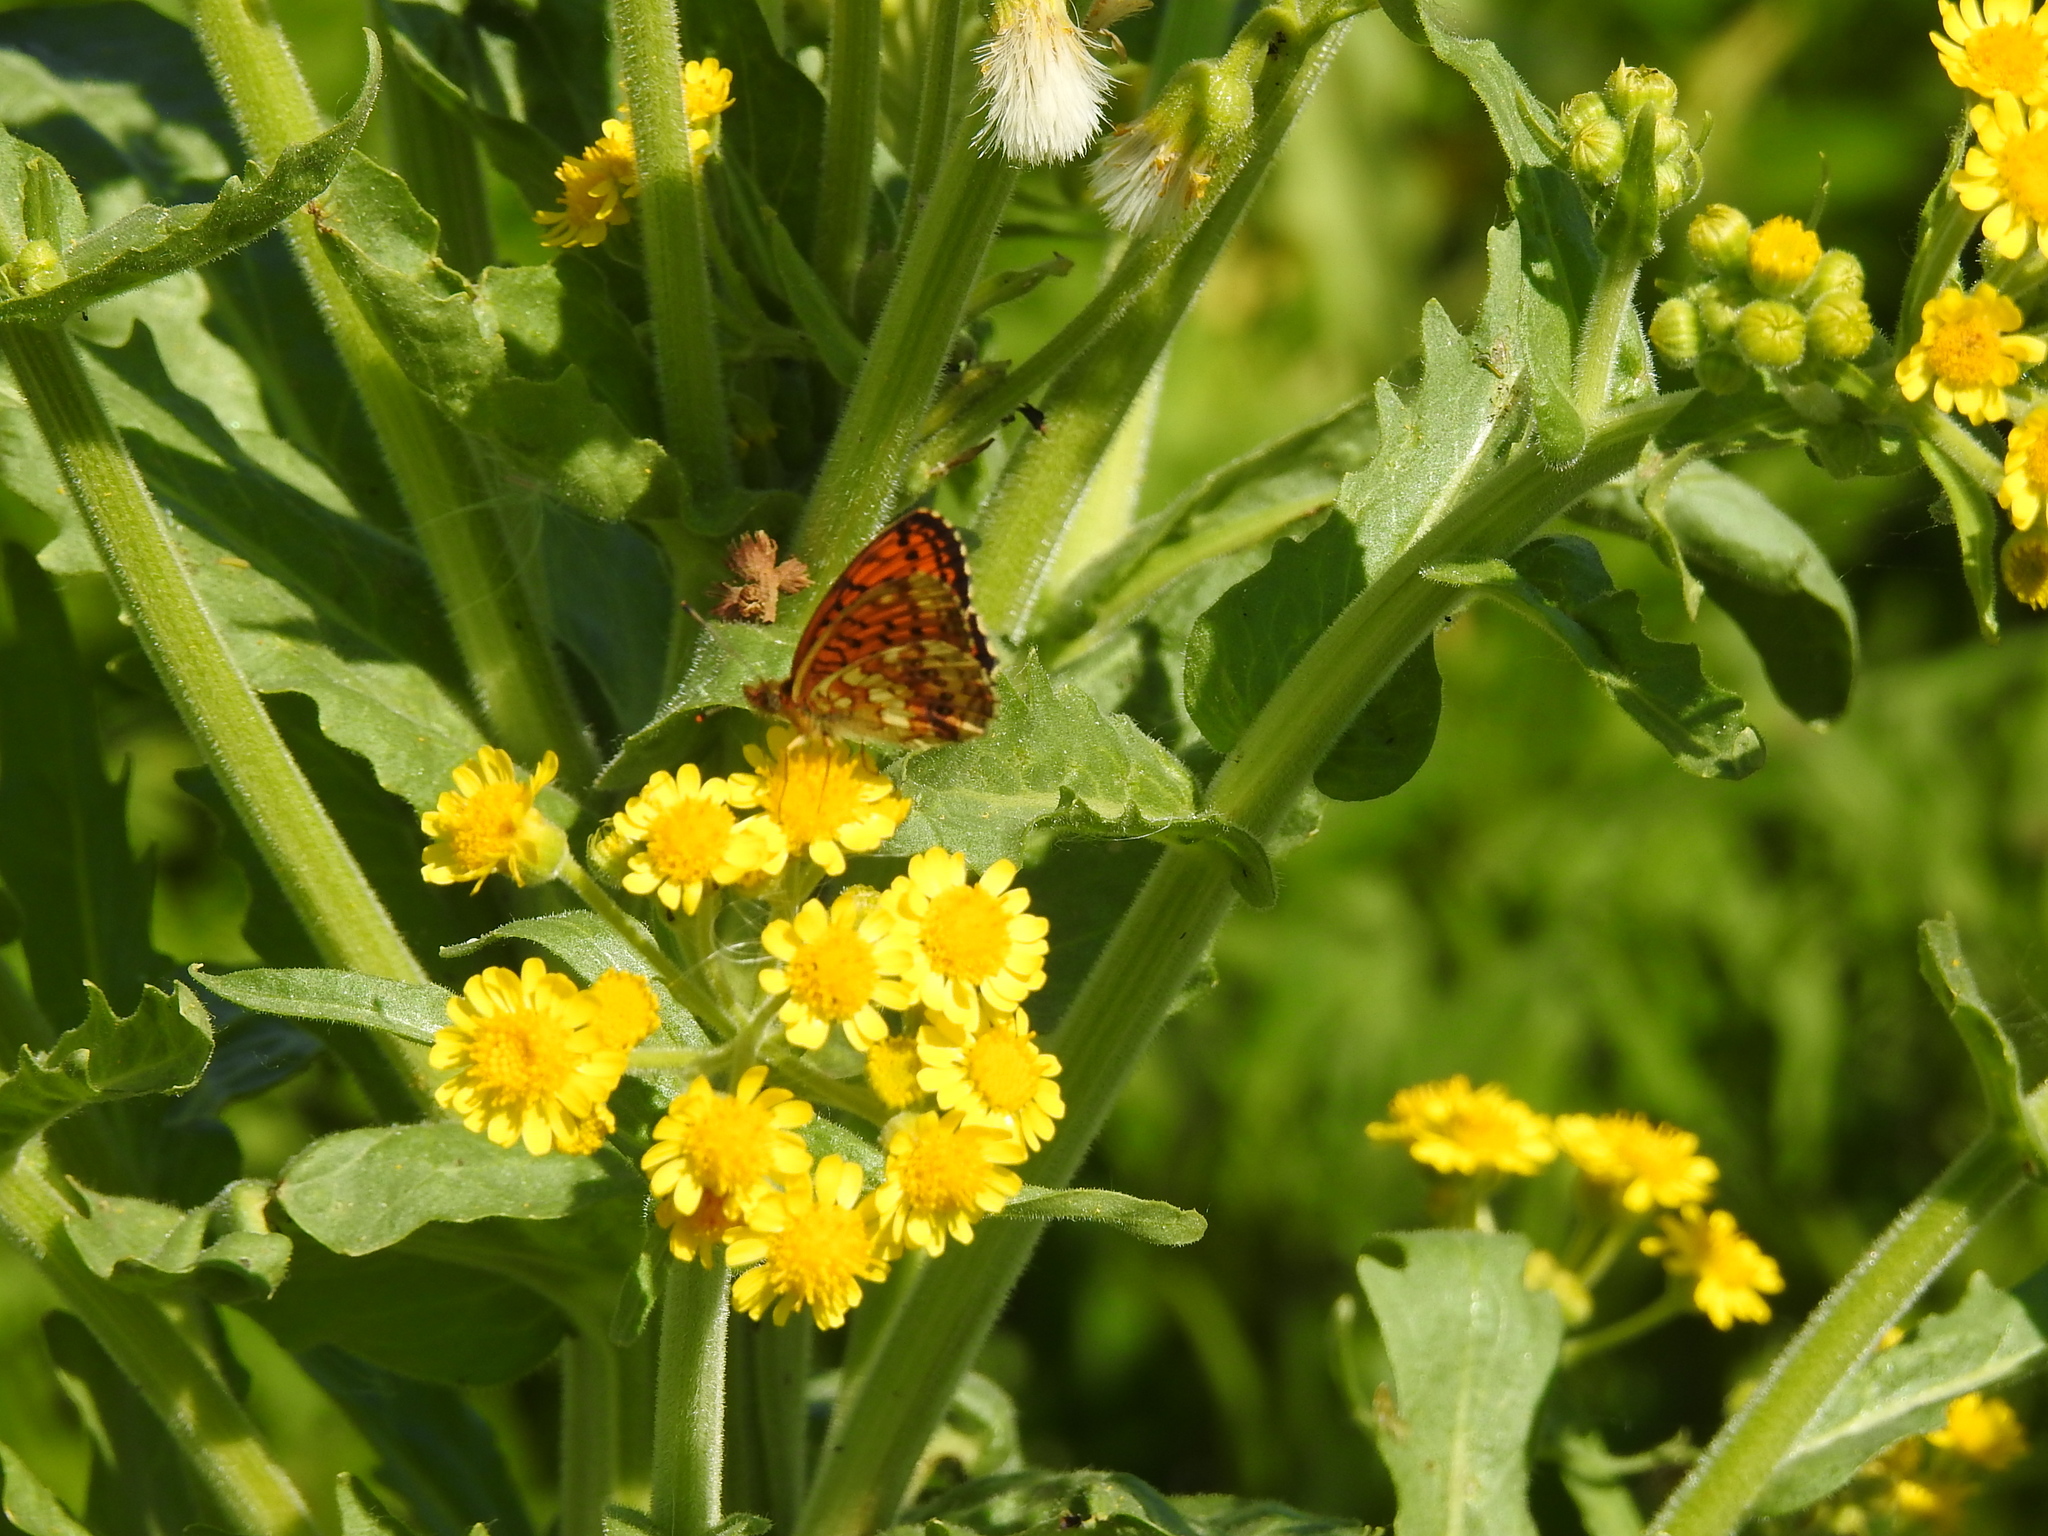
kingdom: Animalia
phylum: Arthropoda
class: Insecta
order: Lepidoptera
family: Nymphalidae
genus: Brenthis
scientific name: Brenthis ino
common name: Lesser marbled fritillary
